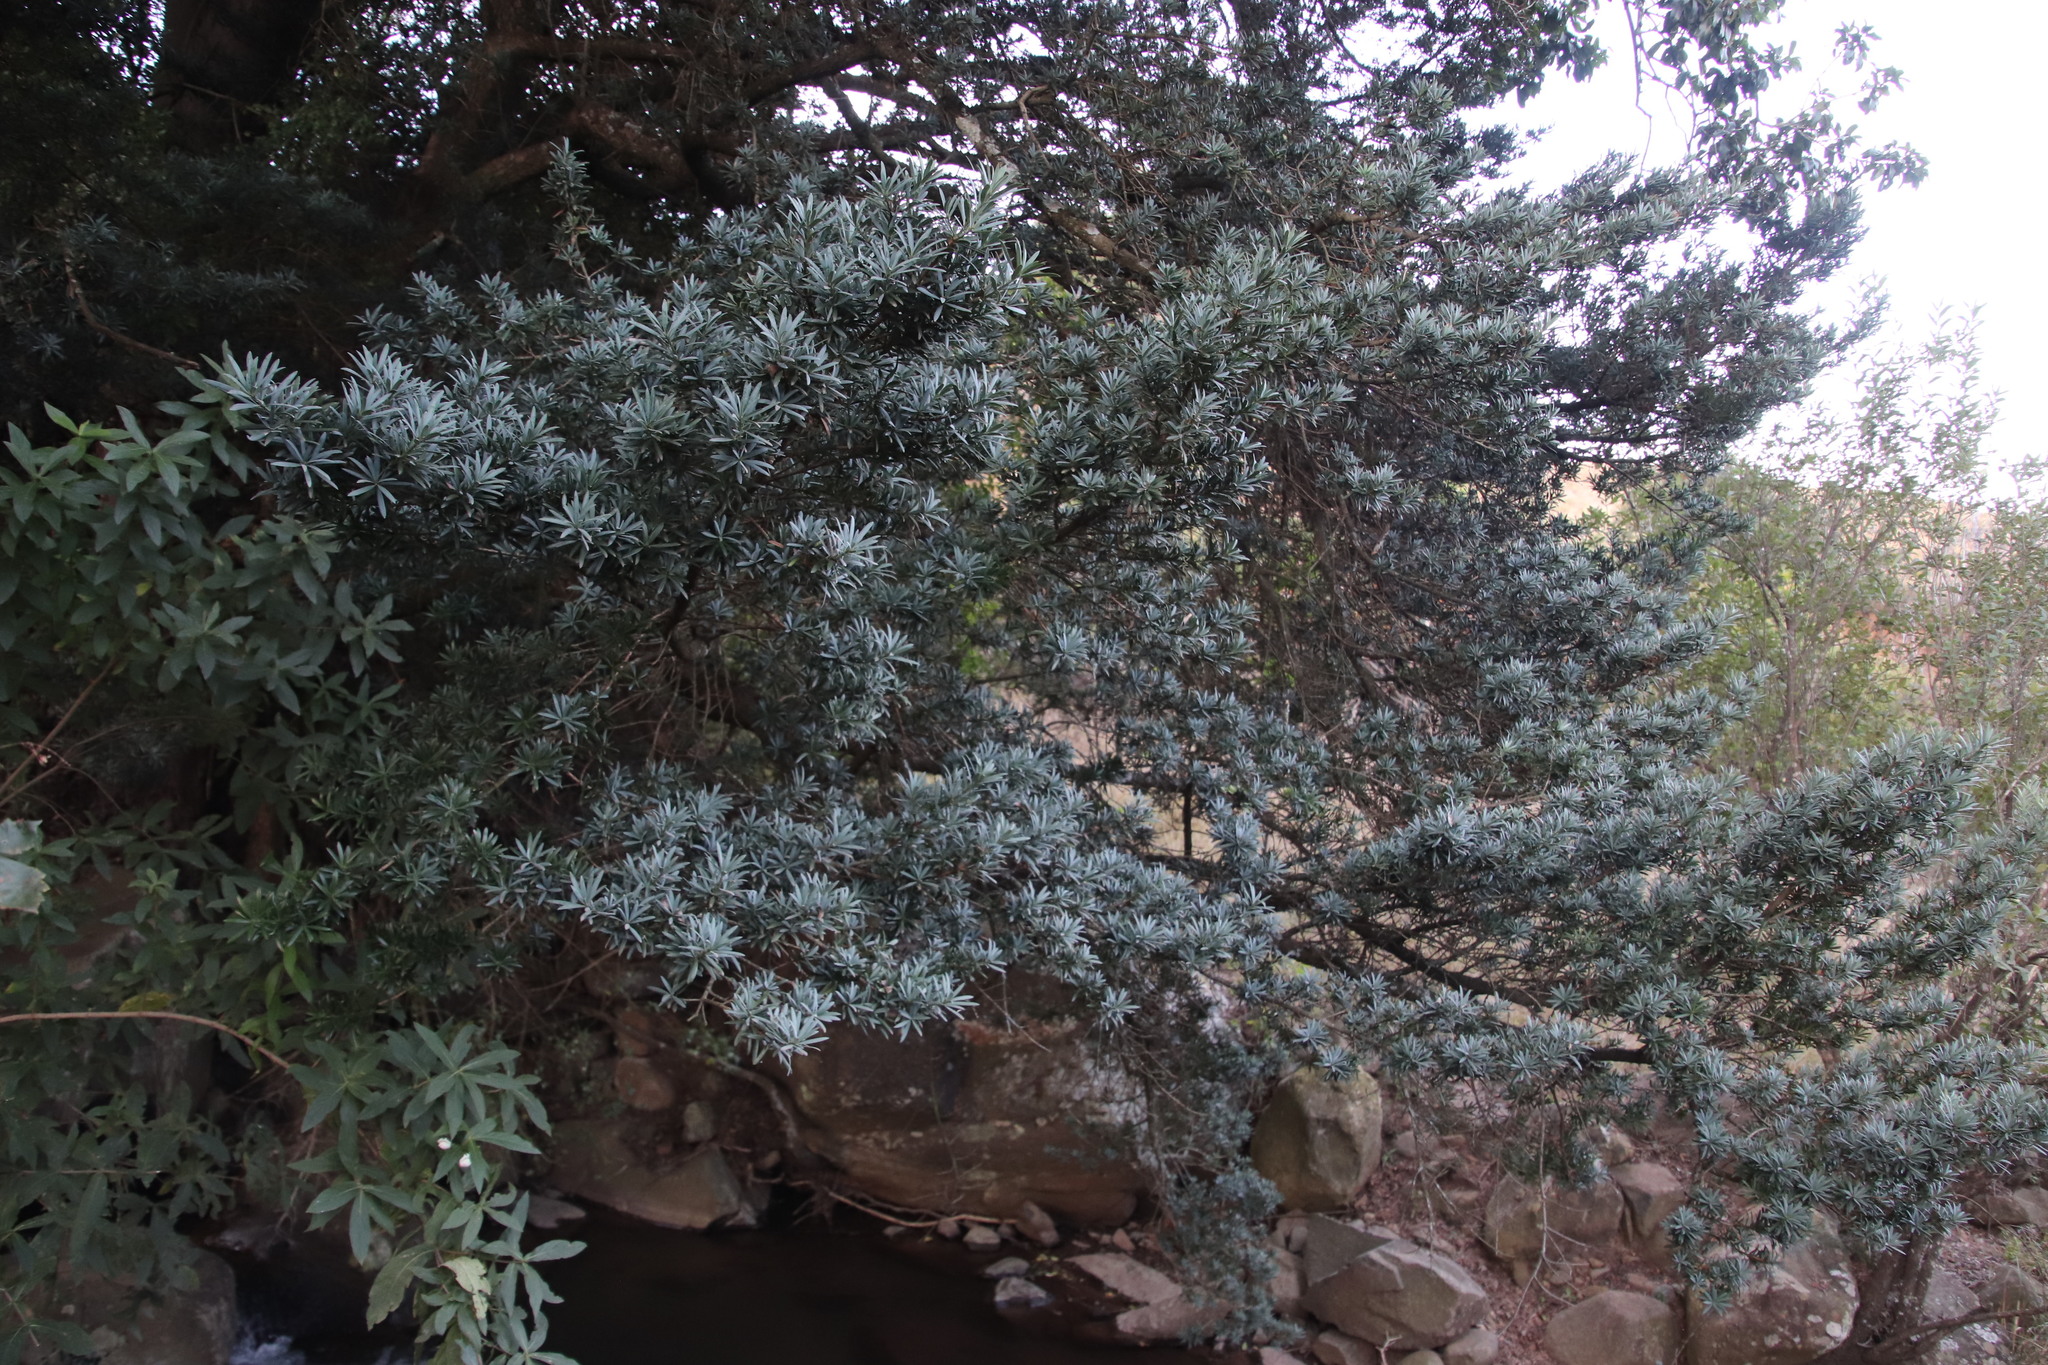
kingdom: Plantae
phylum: Tracheophyta
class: Pinopsida
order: Pinales
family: Podocarpaceae
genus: Podocarpus
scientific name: Podocarpus latifolius
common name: True yellowwood
